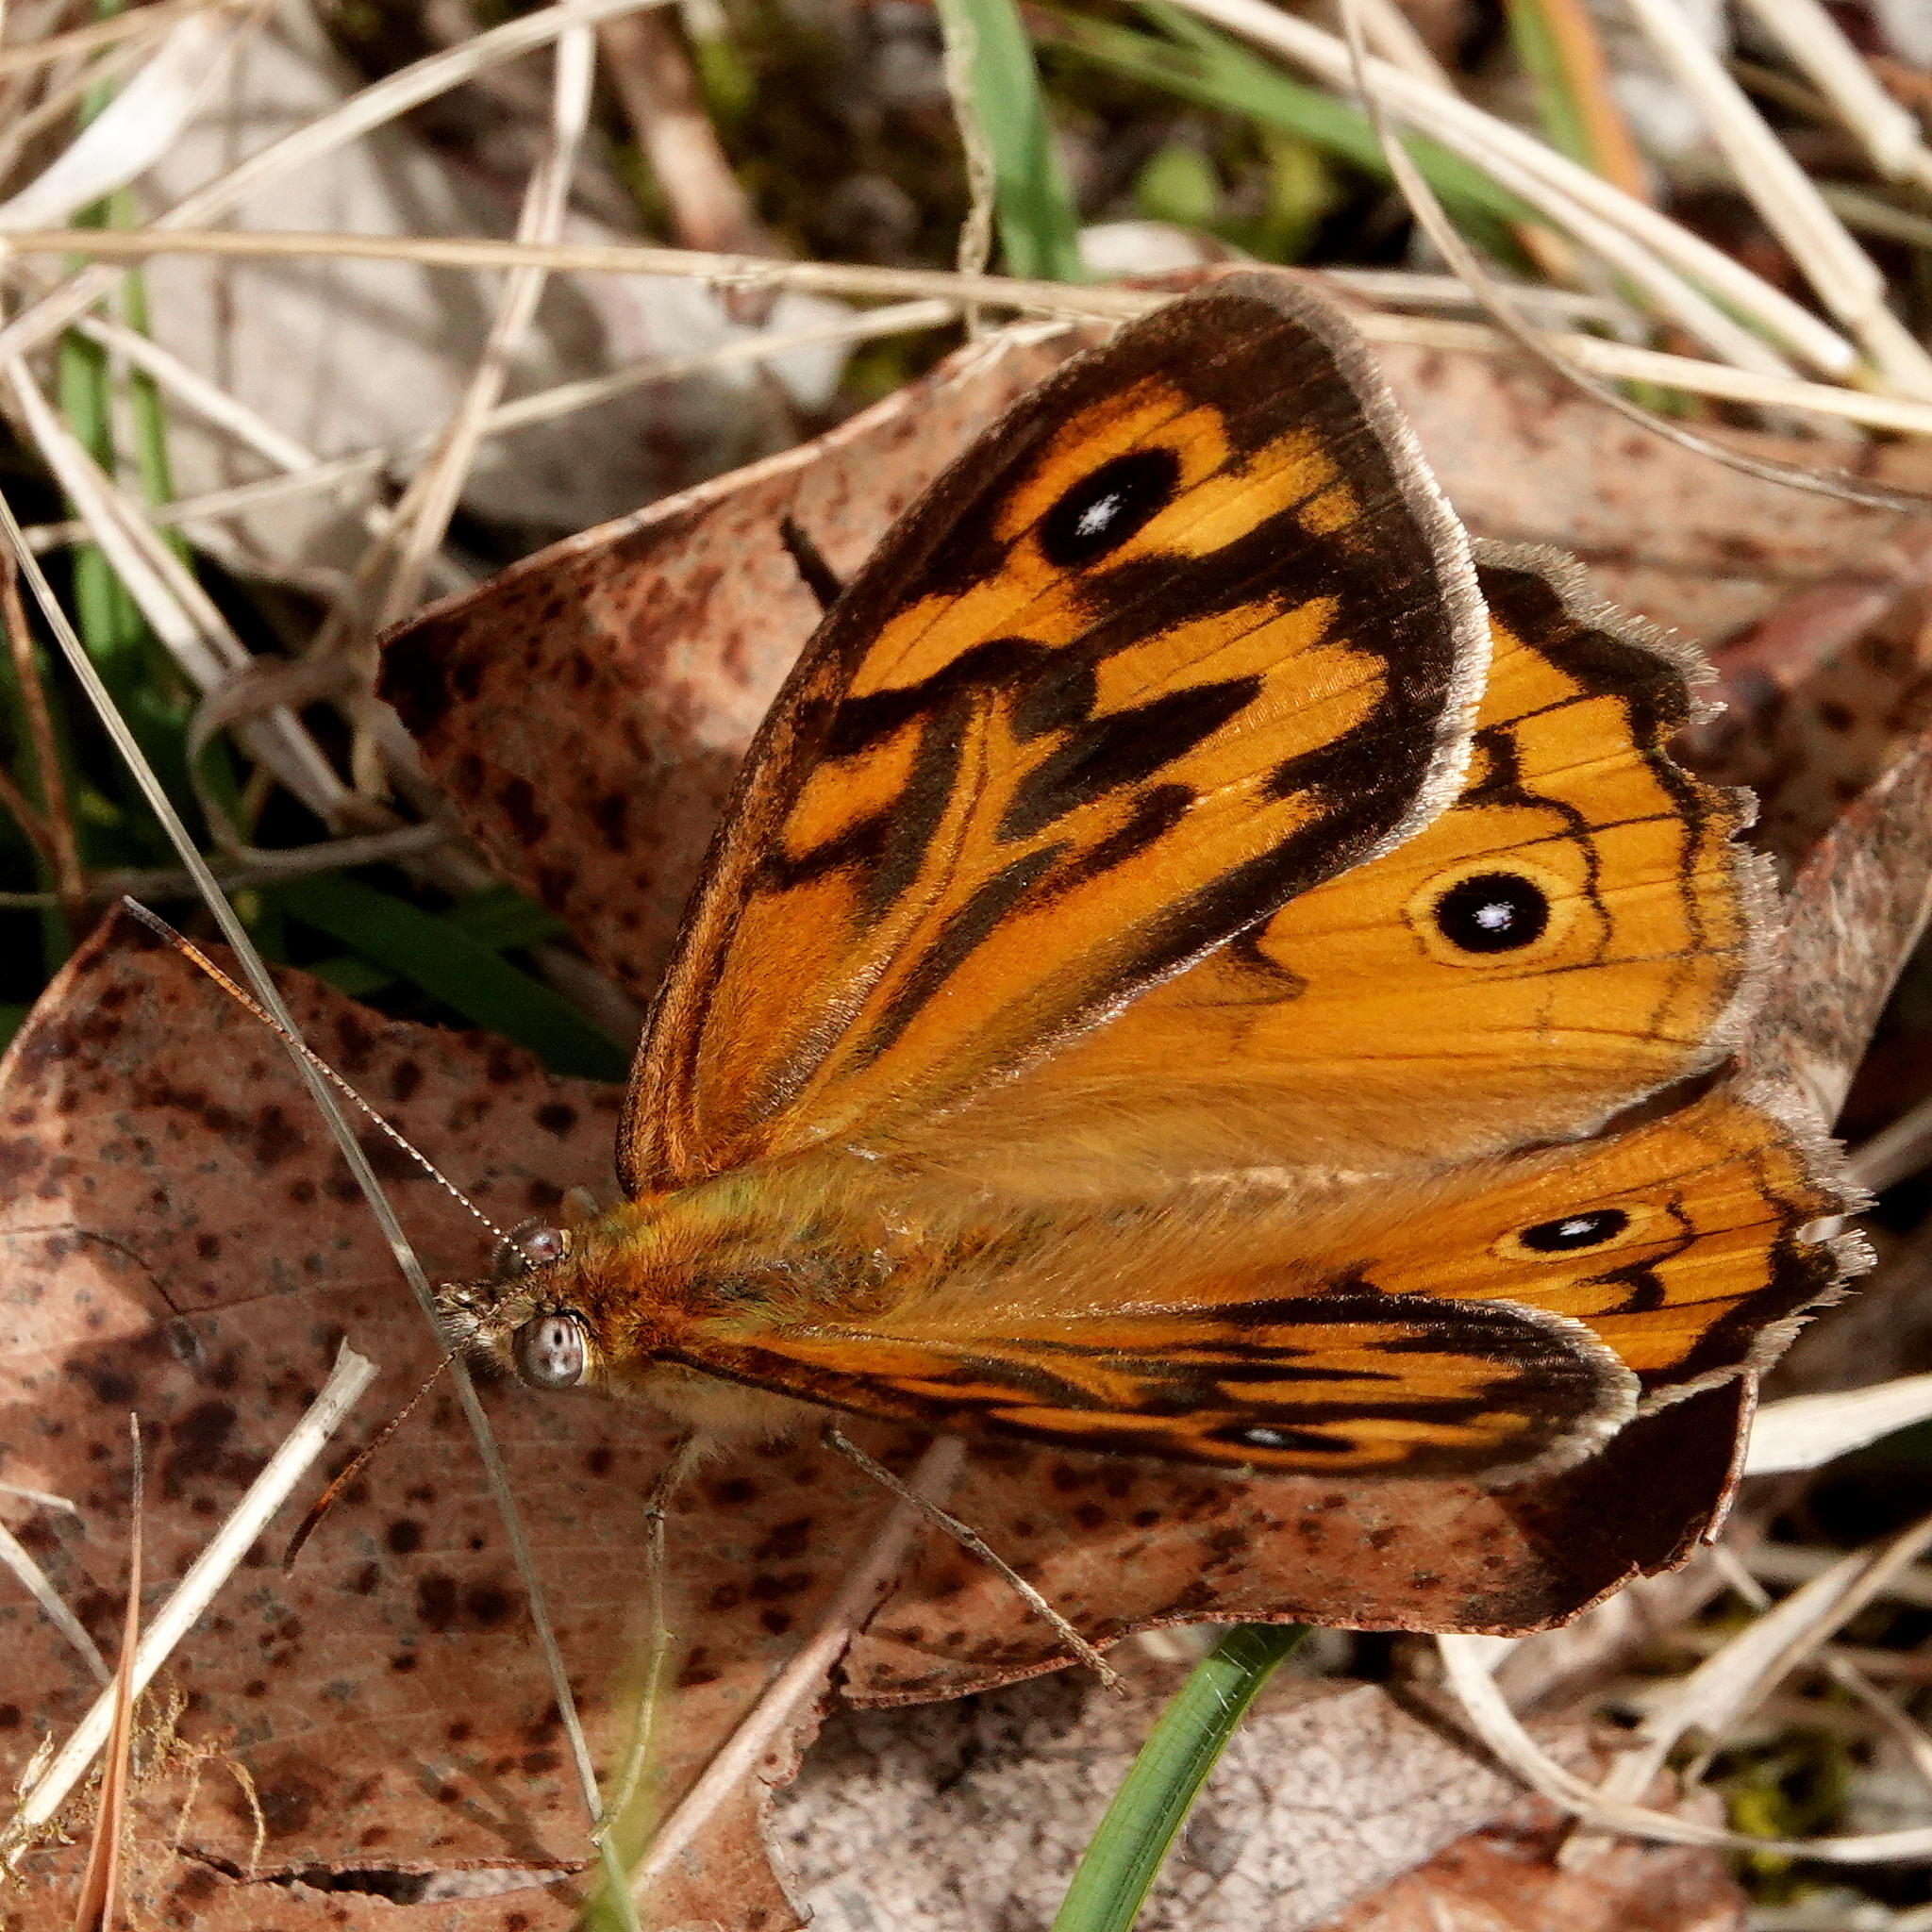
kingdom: Animalia
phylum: Arthropoda
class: Insecta
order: Lepidoptera
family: Nymphalidae
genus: Heteronympha
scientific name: Heteronympha merope
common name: Common brown
